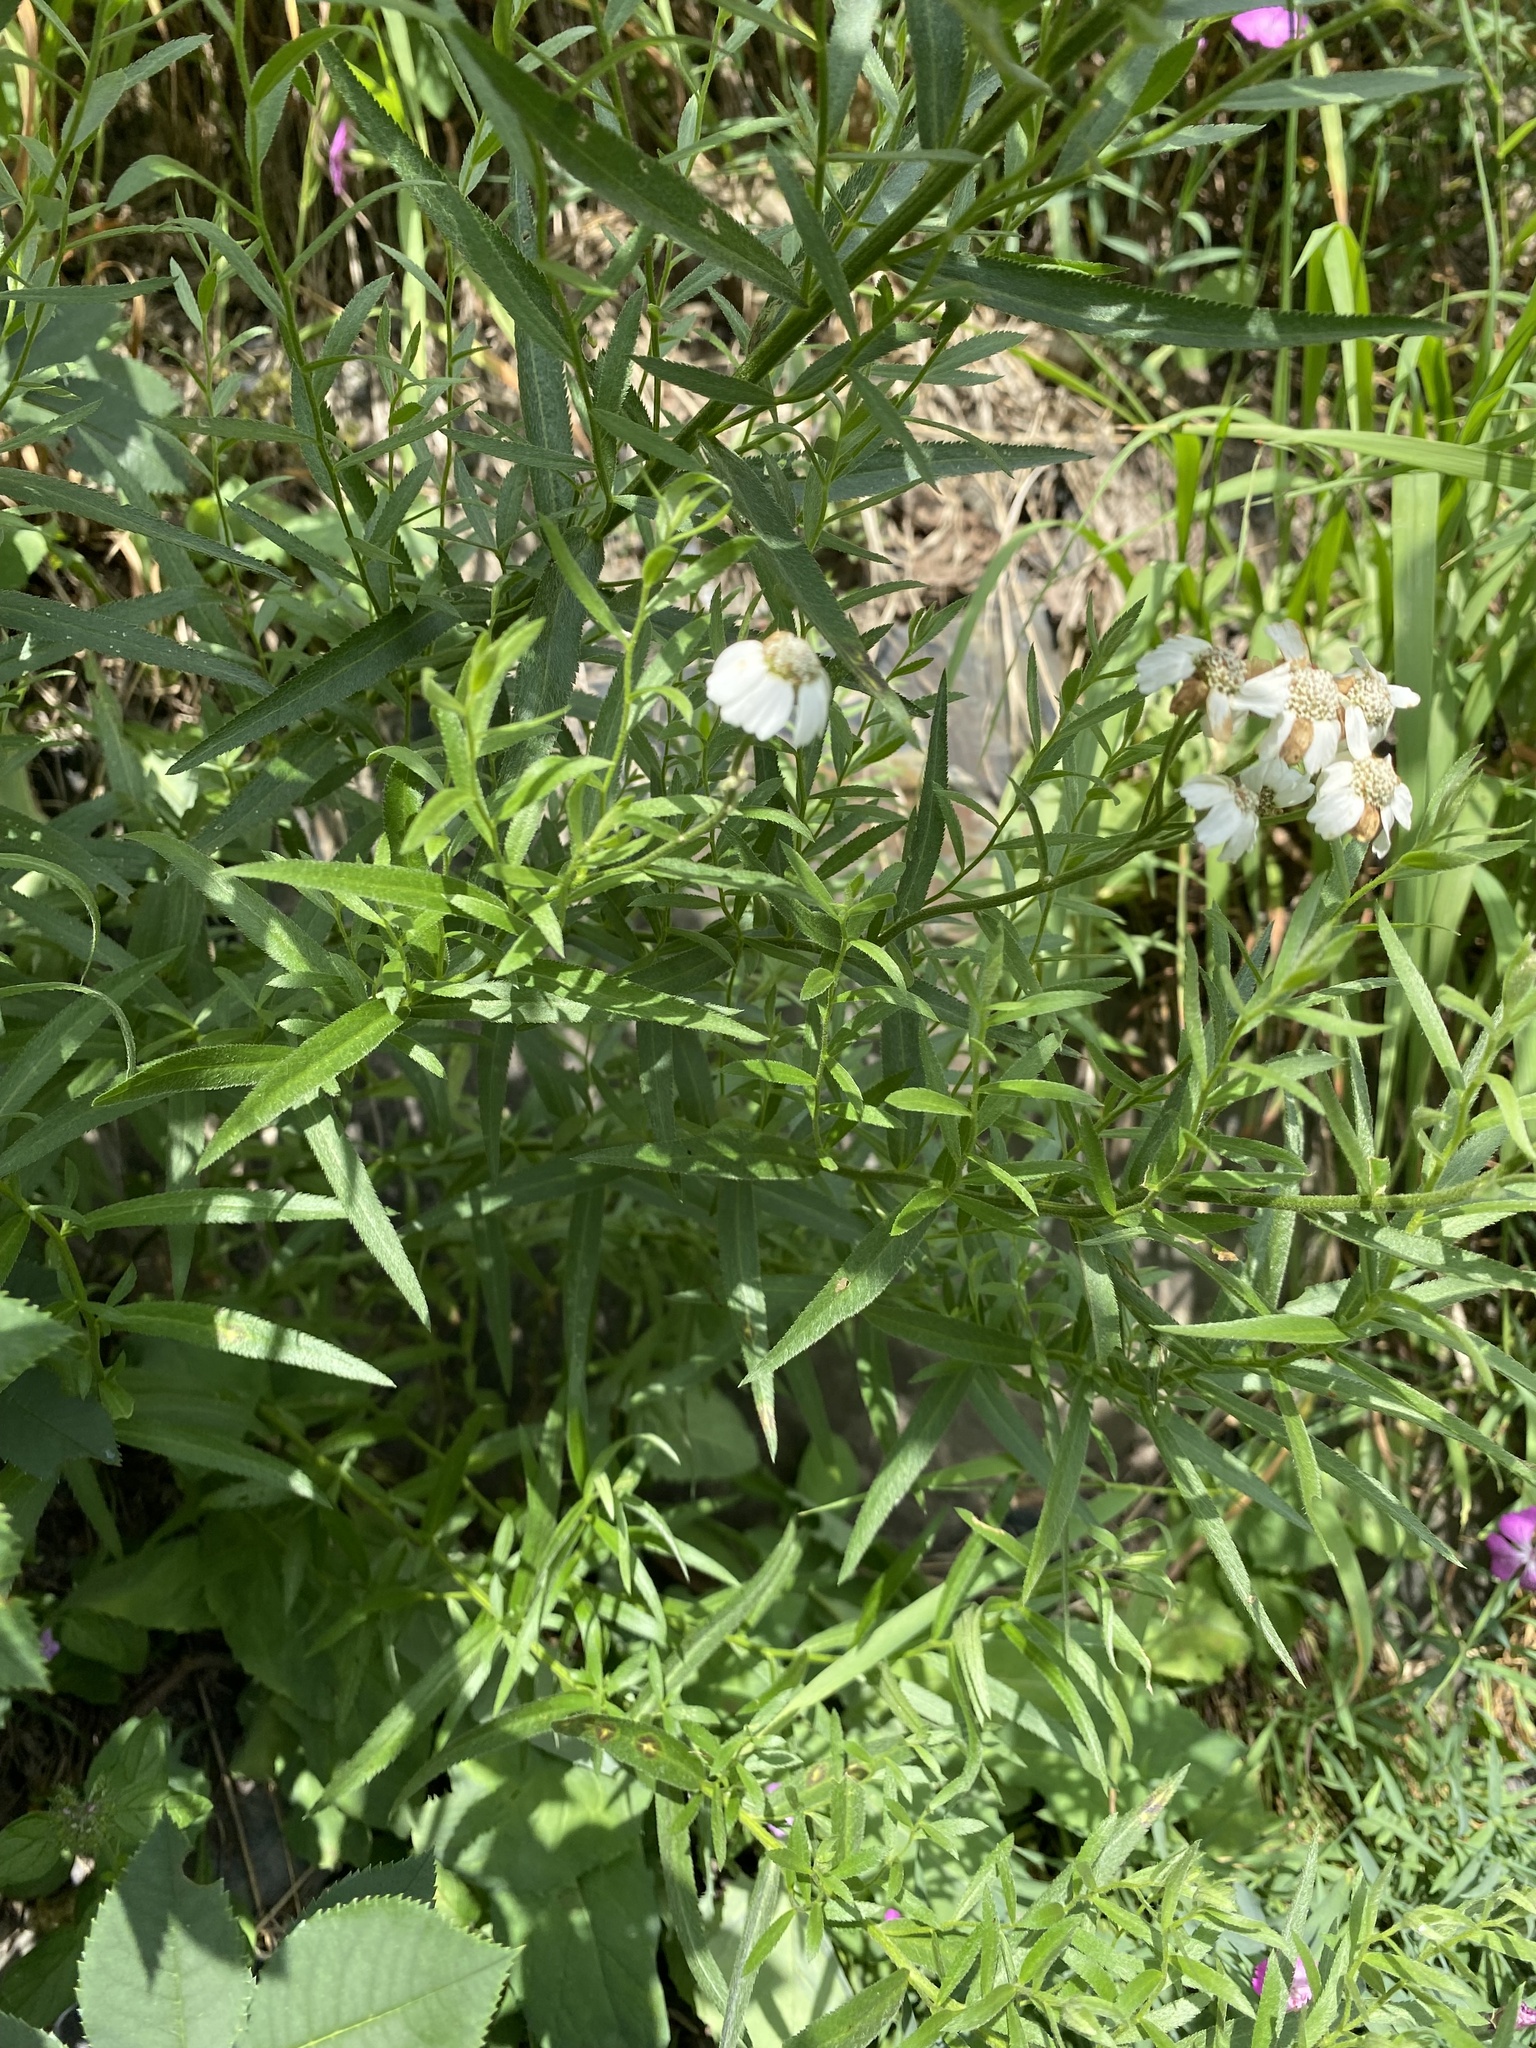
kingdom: Plantae
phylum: Tracheophyta
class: Magnoliopsida
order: Asterales
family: Asteraceae
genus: Achillea
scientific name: Achillea biserrata
